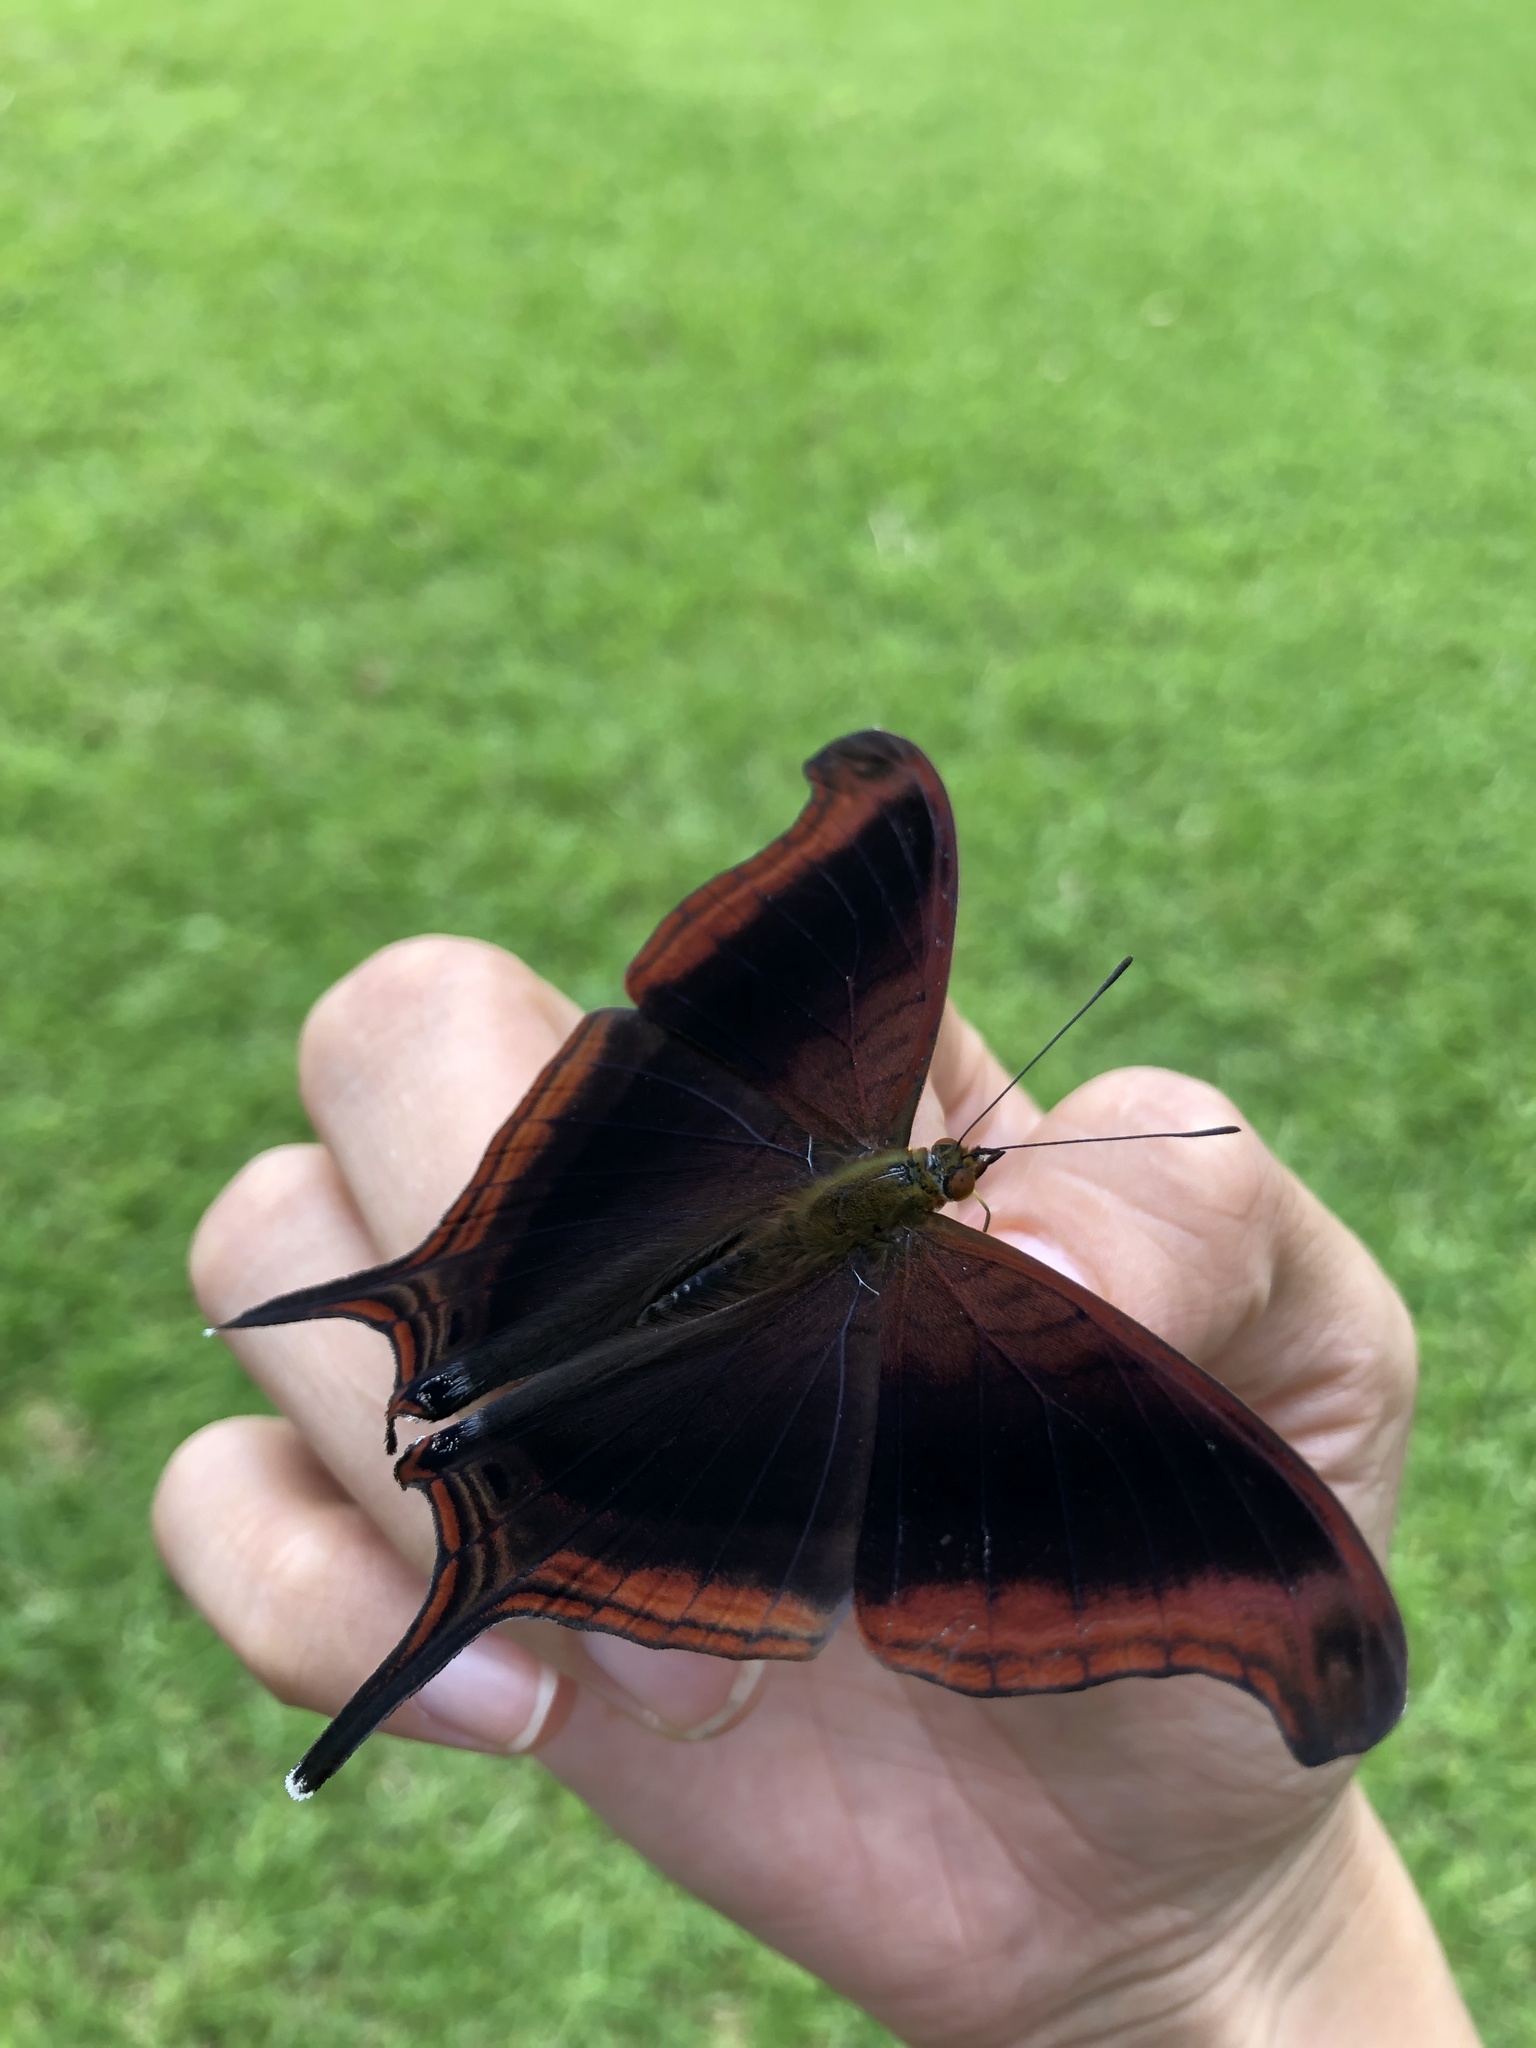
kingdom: Animalia
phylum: Arthropoda
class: Insecta
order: Lepidoptera
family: Nymphalidae
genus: Marpesia
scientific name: Marpesia zerynthia
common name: Waiter daggerwing
